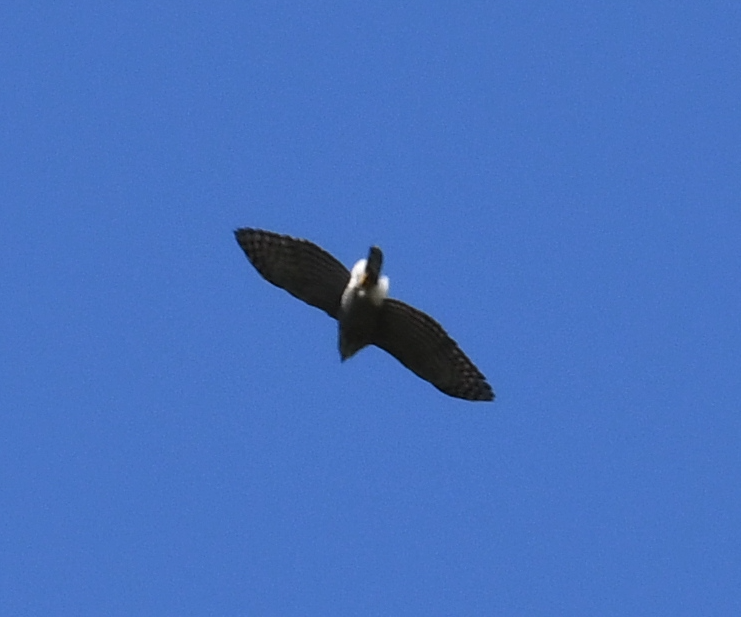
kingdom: Animalia
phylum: Chordata
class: Aves
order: Accipitriformes
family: Accipitridae
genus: Accipiter
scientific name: Accipiter trivirgatus
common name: Crested goshawk
